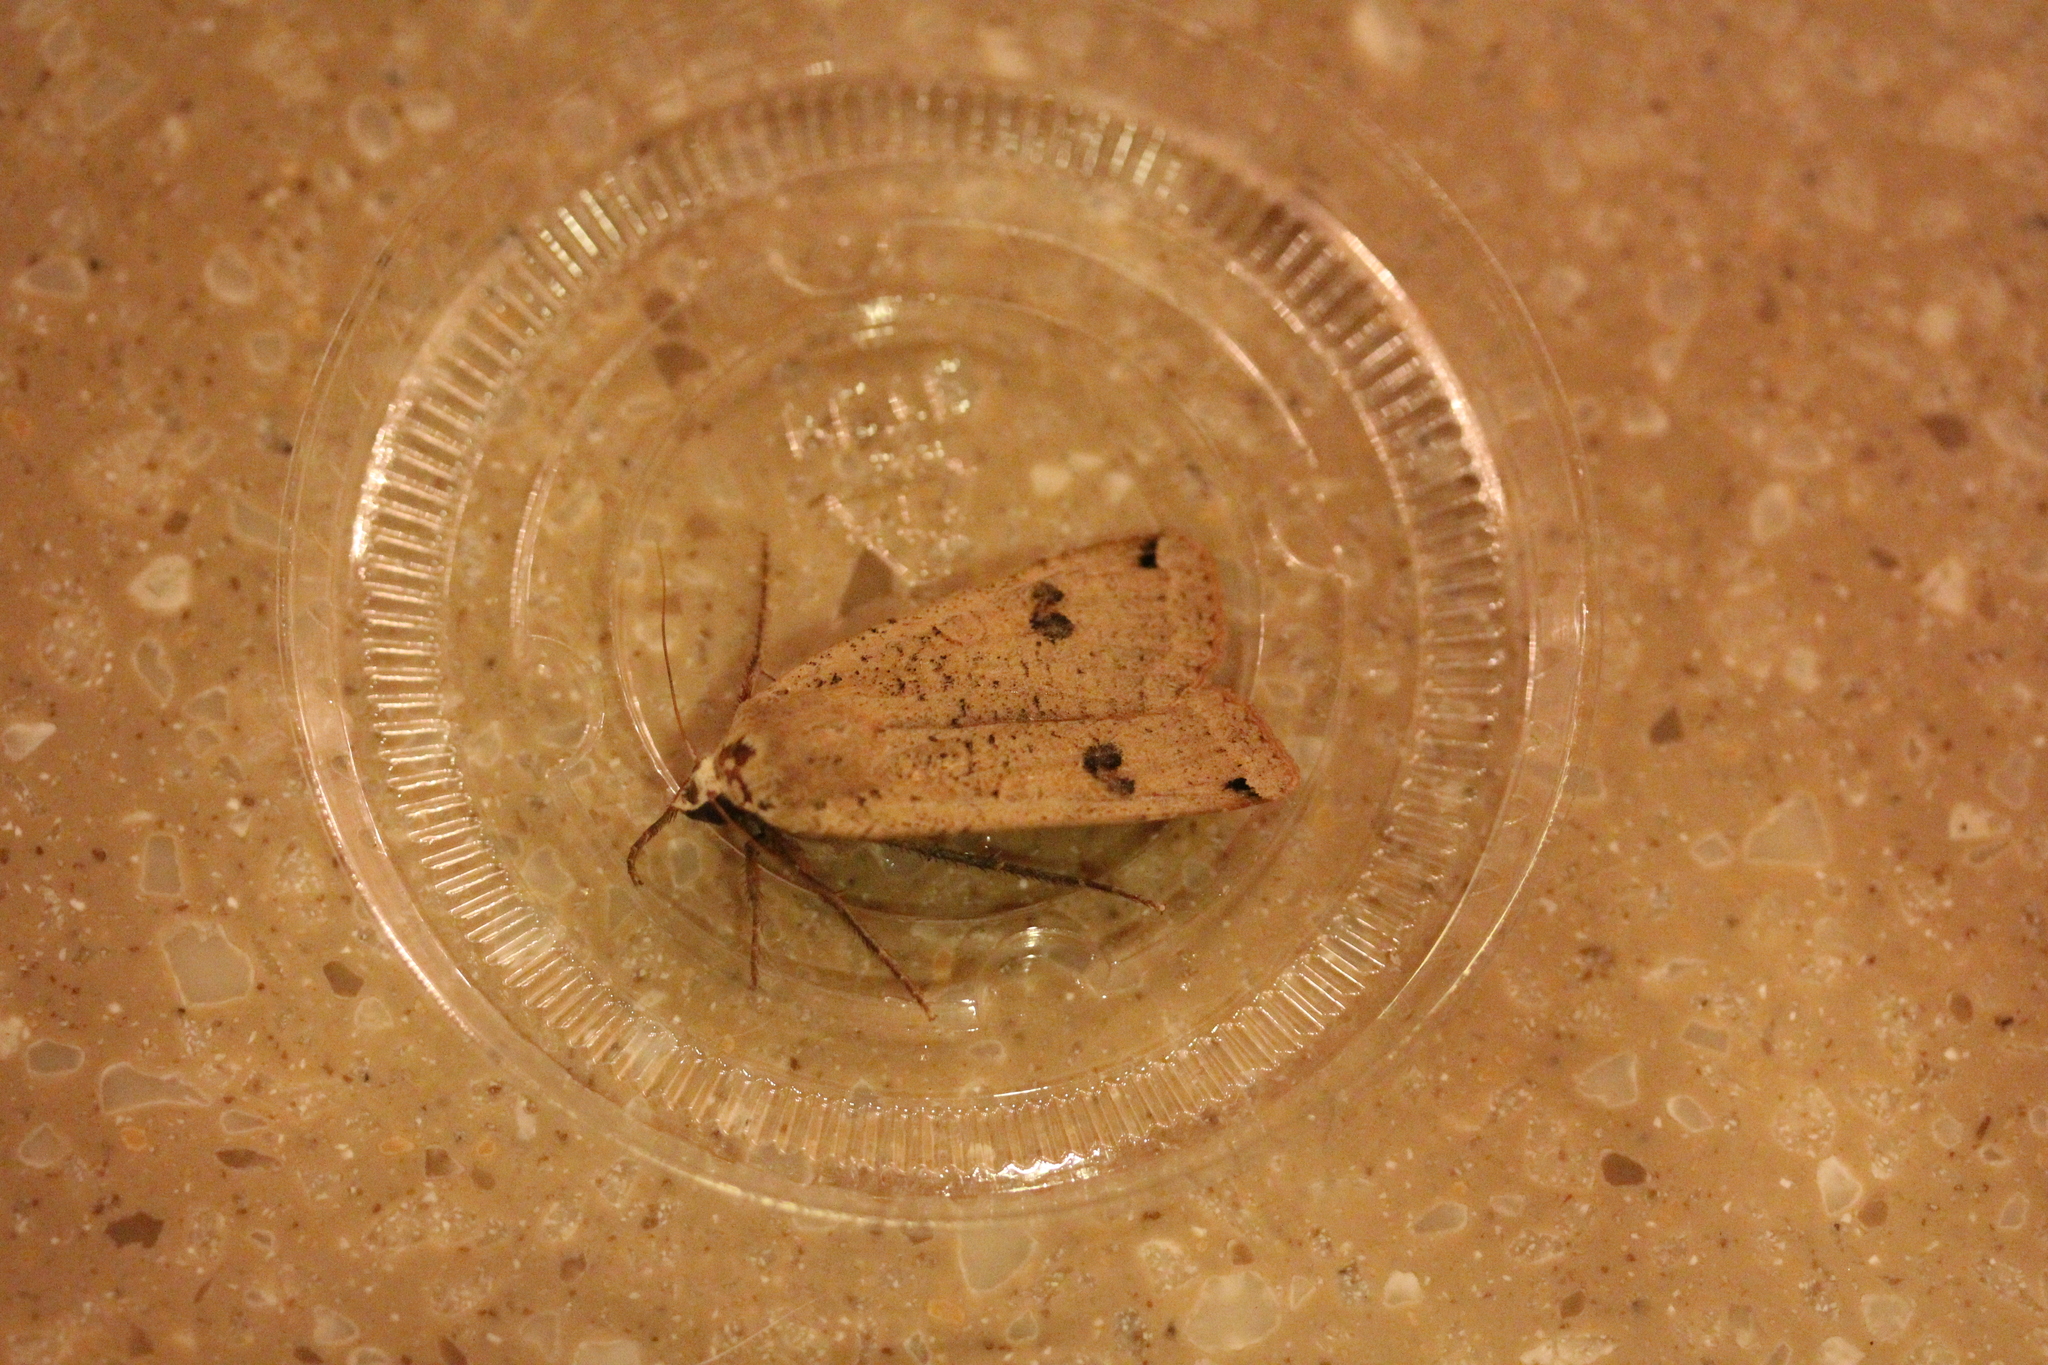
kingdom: Animalia
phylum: Arthropoda
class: Insecta
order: Lepidoptera
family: Noctuidae
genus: Noctua
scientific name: Noctua pronuba
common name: Large yellow underwing
